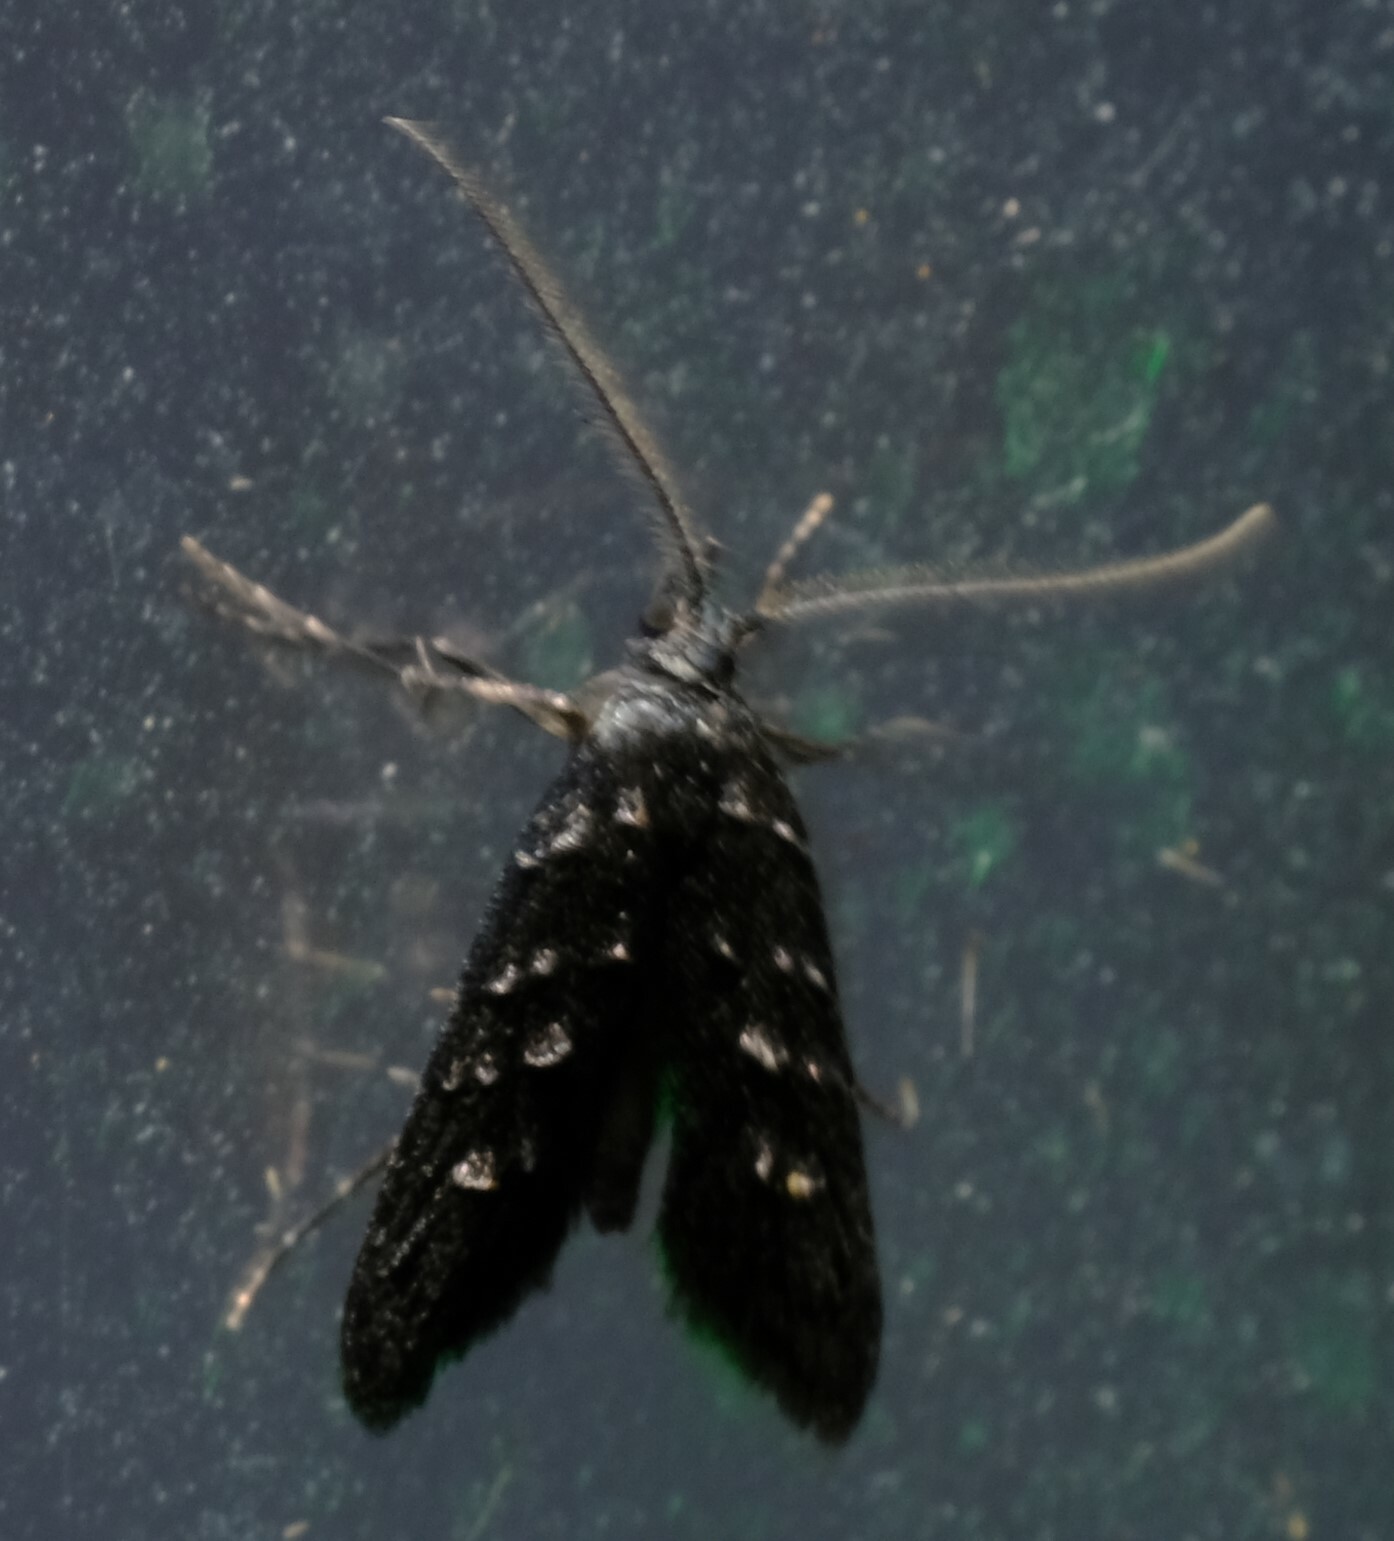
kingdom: Animalia
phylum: Arthropoda
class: Insecta
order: Lepidoptera
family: Carposinidae
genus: Bondia
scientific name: Bondia dissolutana
